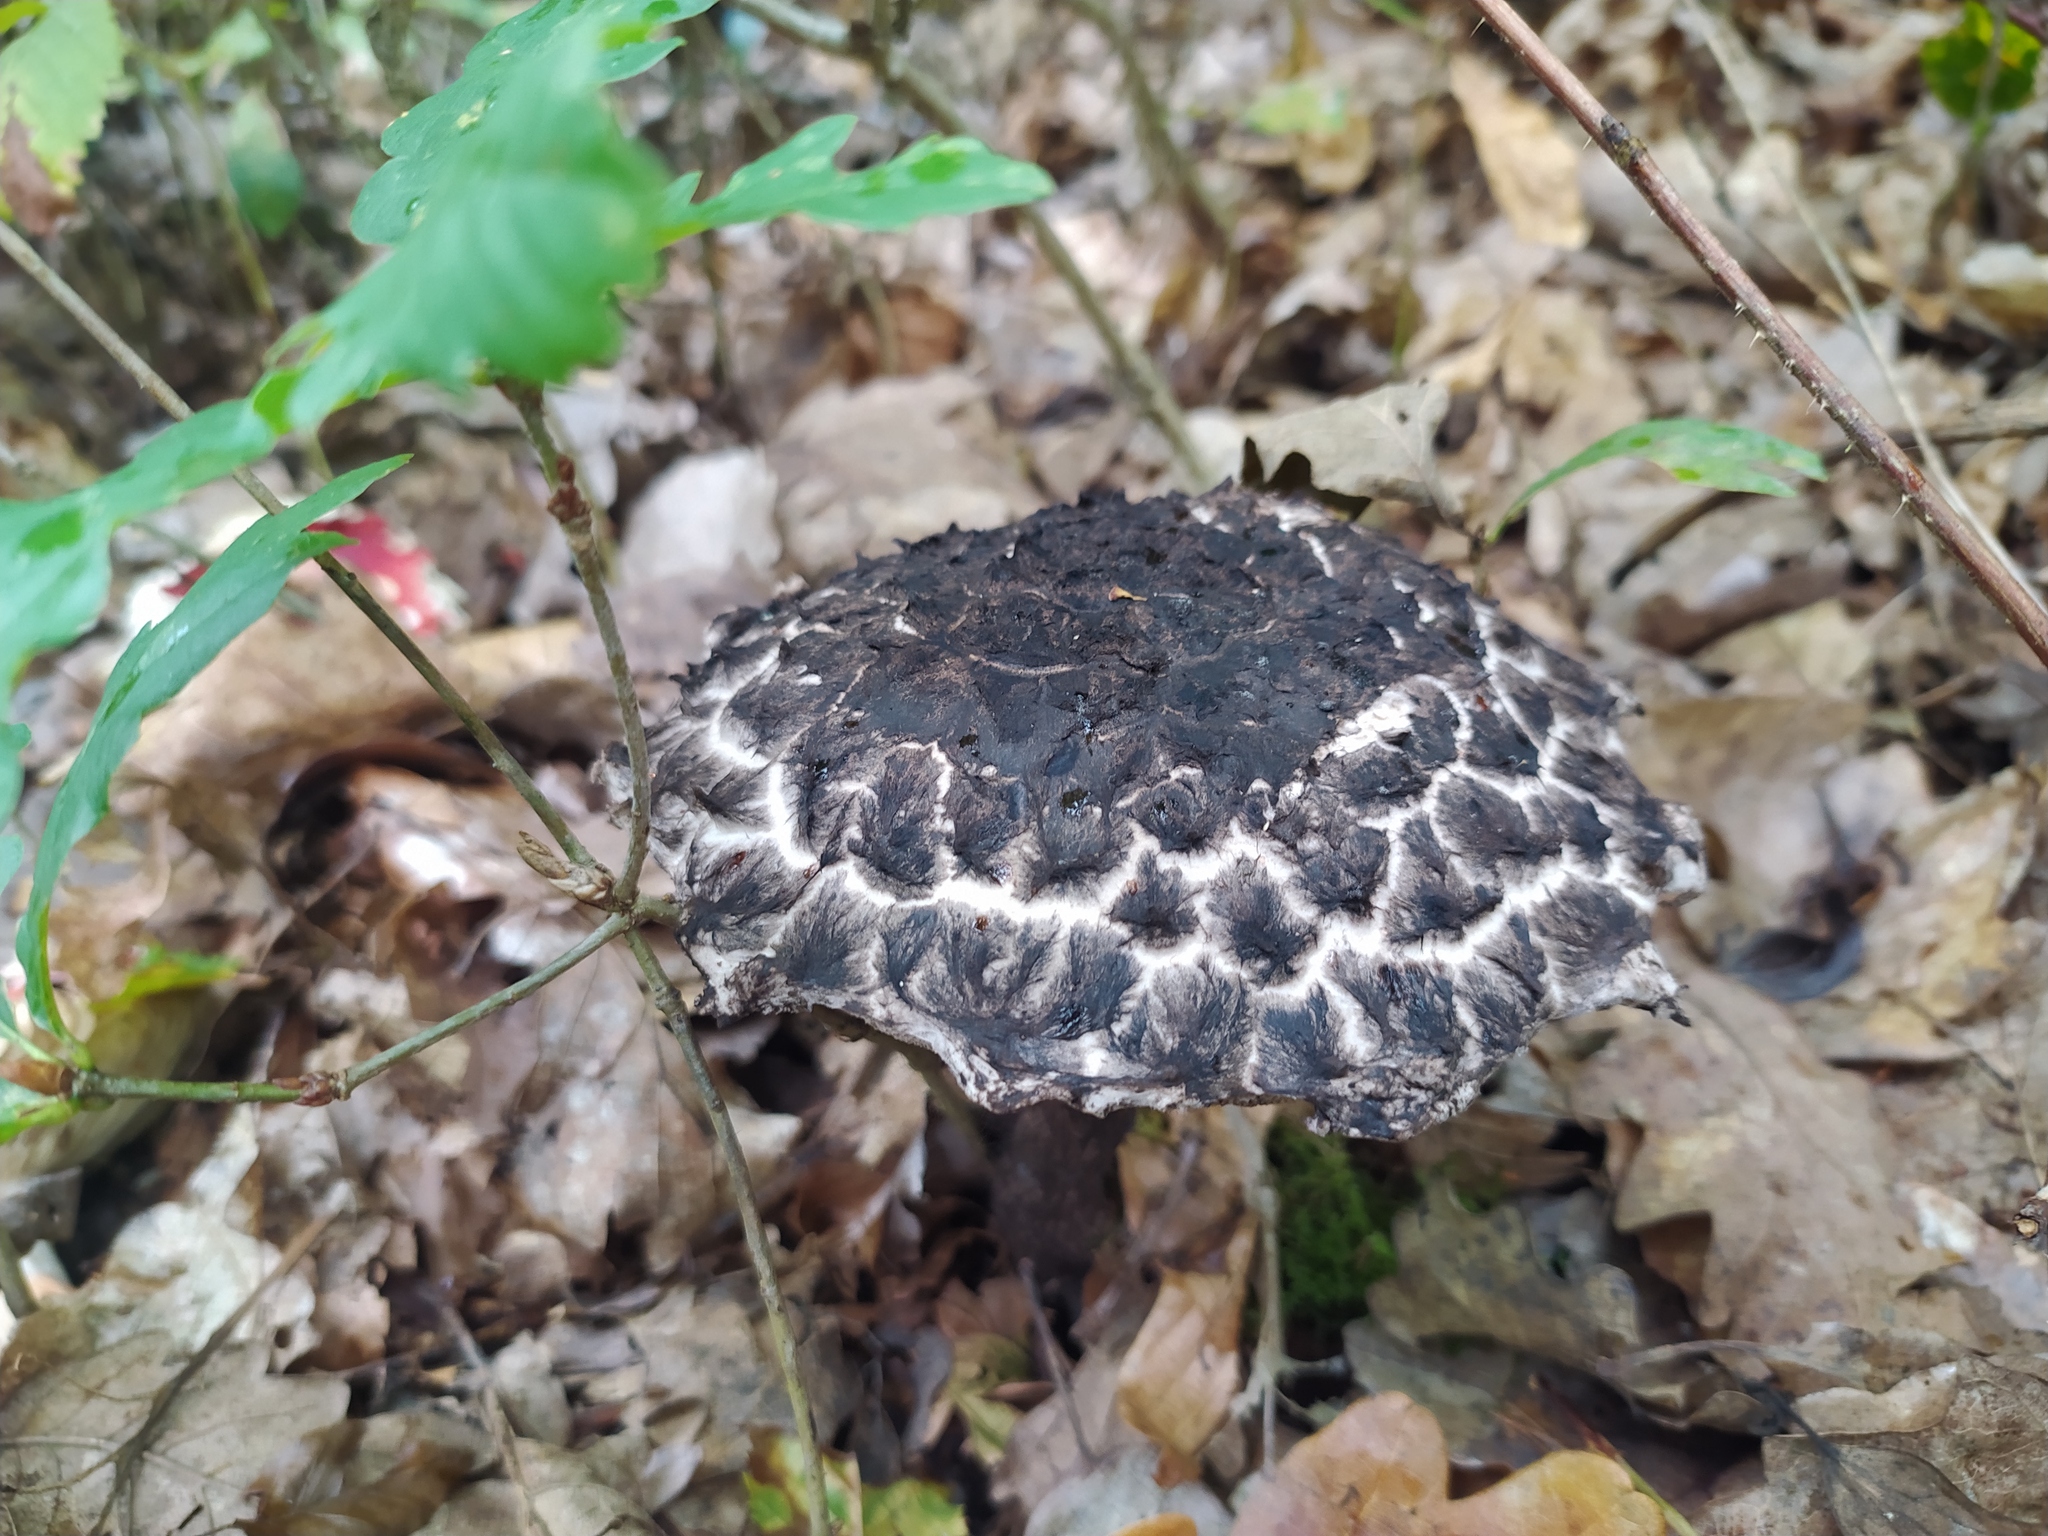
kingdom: Fungi
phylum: Basidiomycota
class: Agaricomycetes
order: Boletales
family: Boletaceae
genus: Strobilomyces
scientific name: Strobilomyces strobilaceus
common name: Old man of the woods
